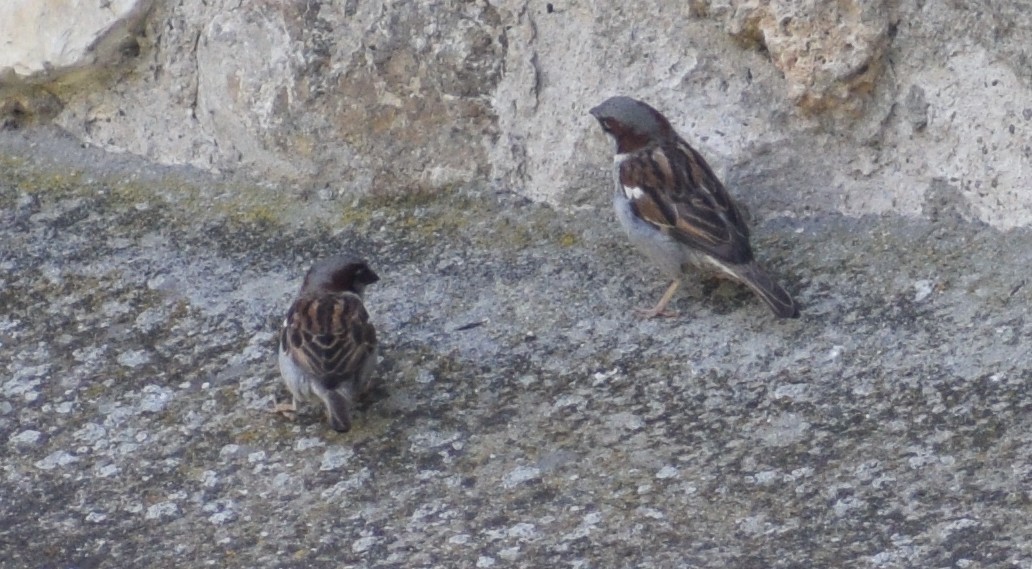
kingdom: Animalia
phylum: Chordata
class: Aves
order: Passeriformes
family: Passeridae
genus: Passer
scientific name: Passer domesticus
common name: House sparrow
